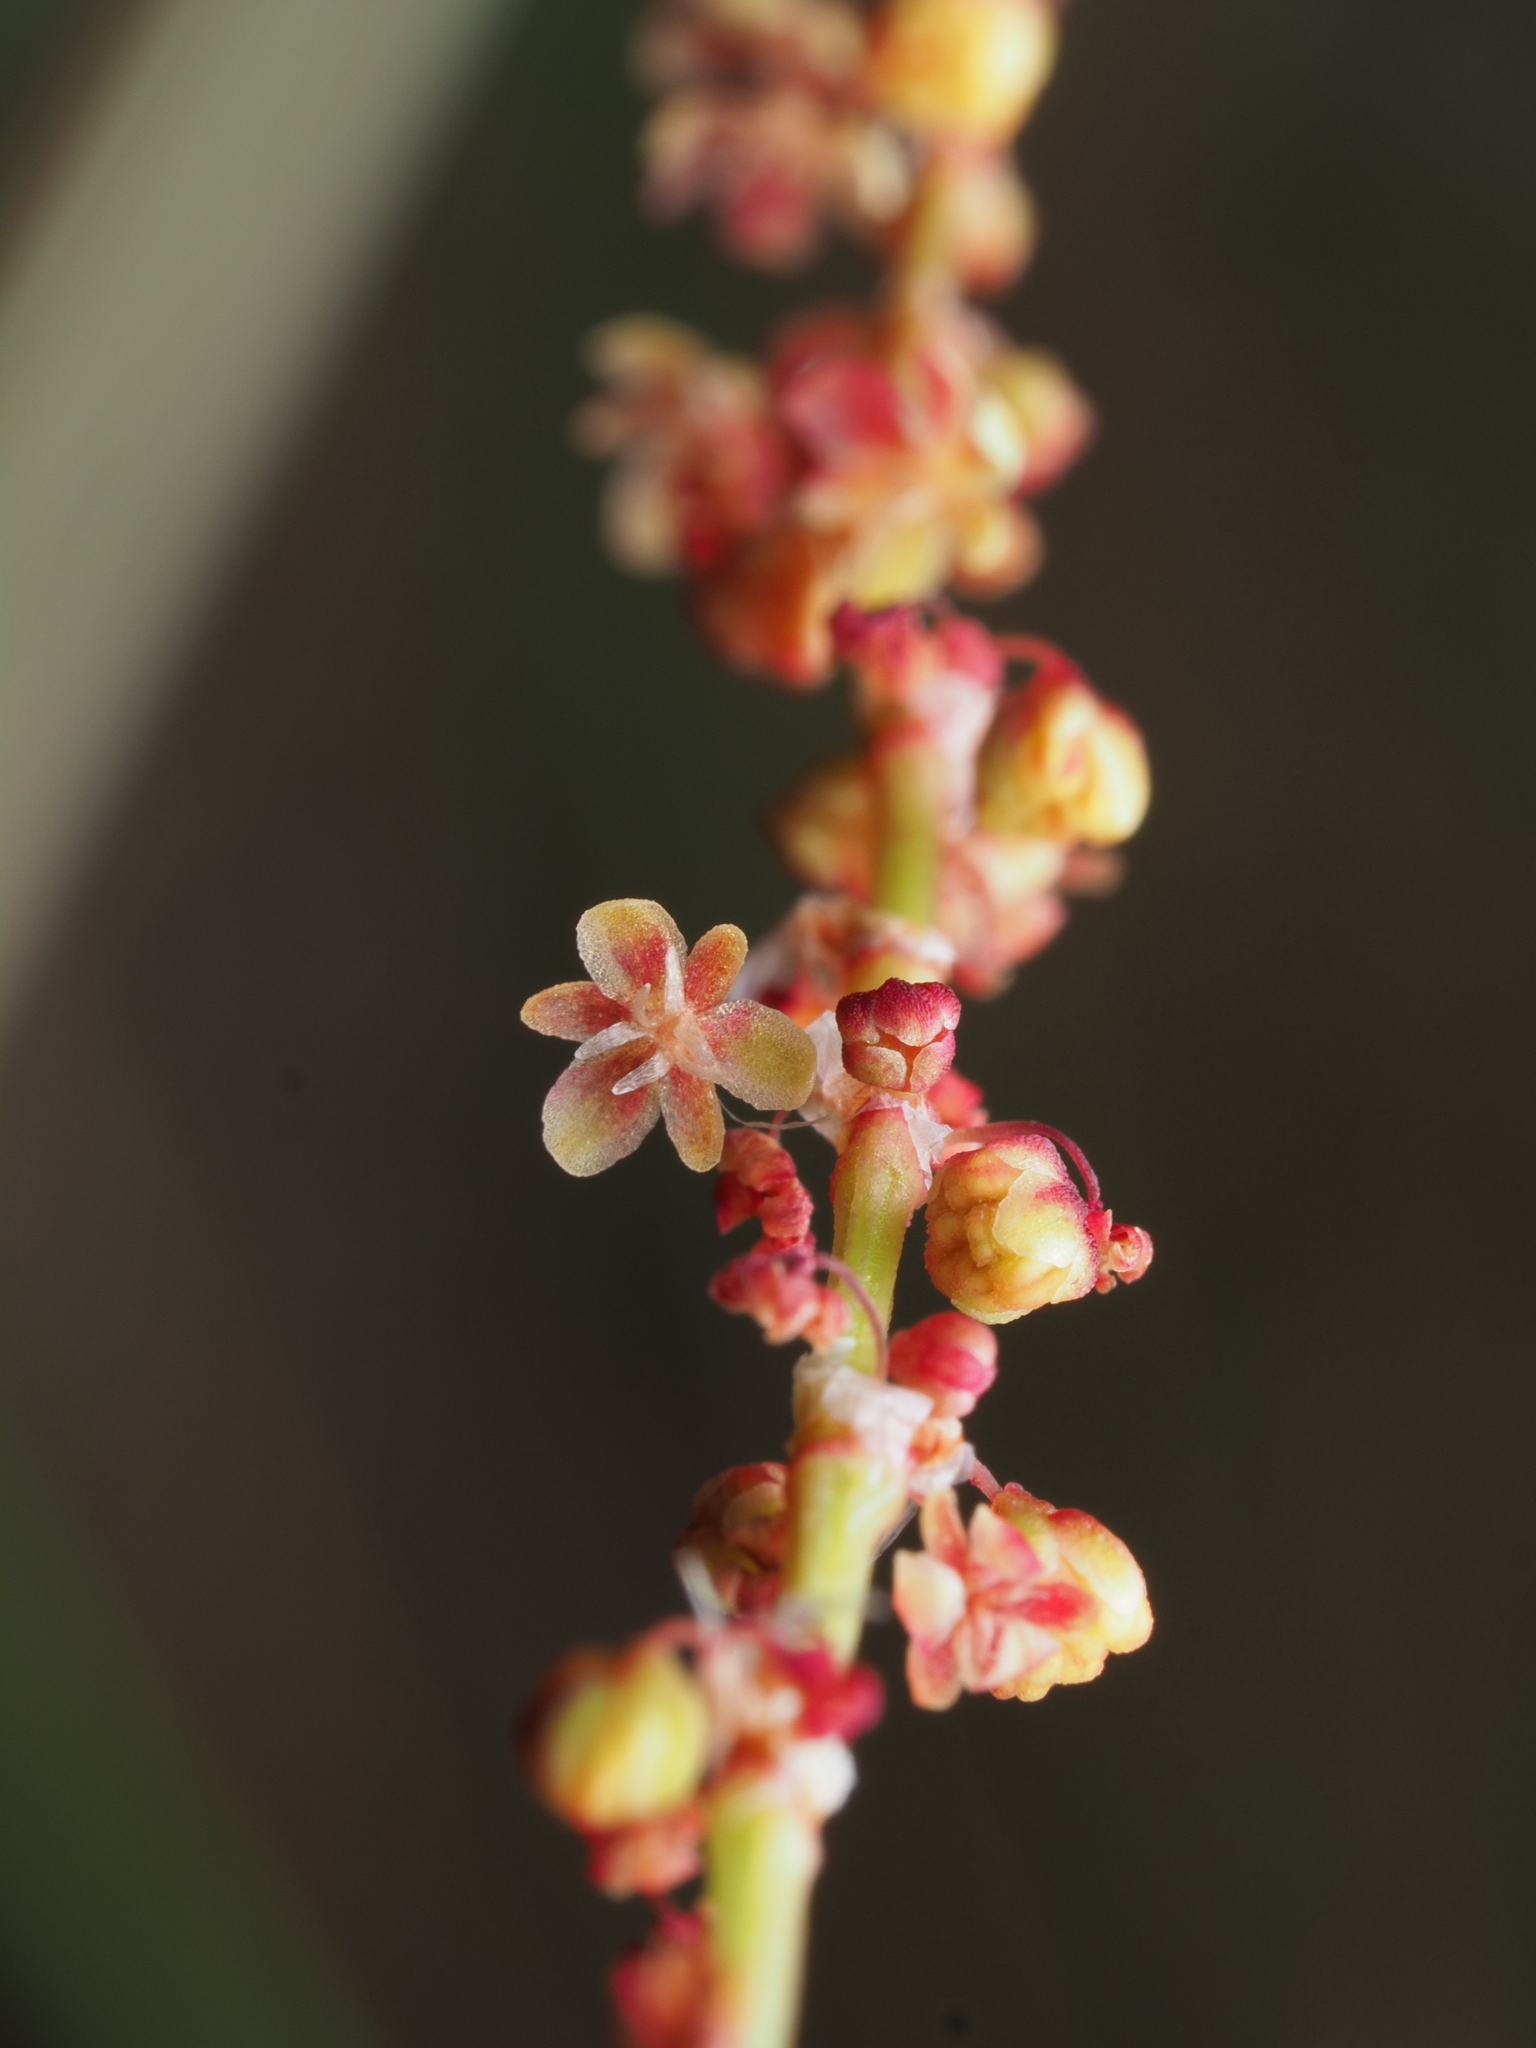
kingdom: Plantae
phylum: Tracheophyta
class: Magnoliopsida
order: Caryophyllales
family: Polygonaceae
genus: Rumex
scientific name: Rumex acetosella
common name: Common sheep sorrel
